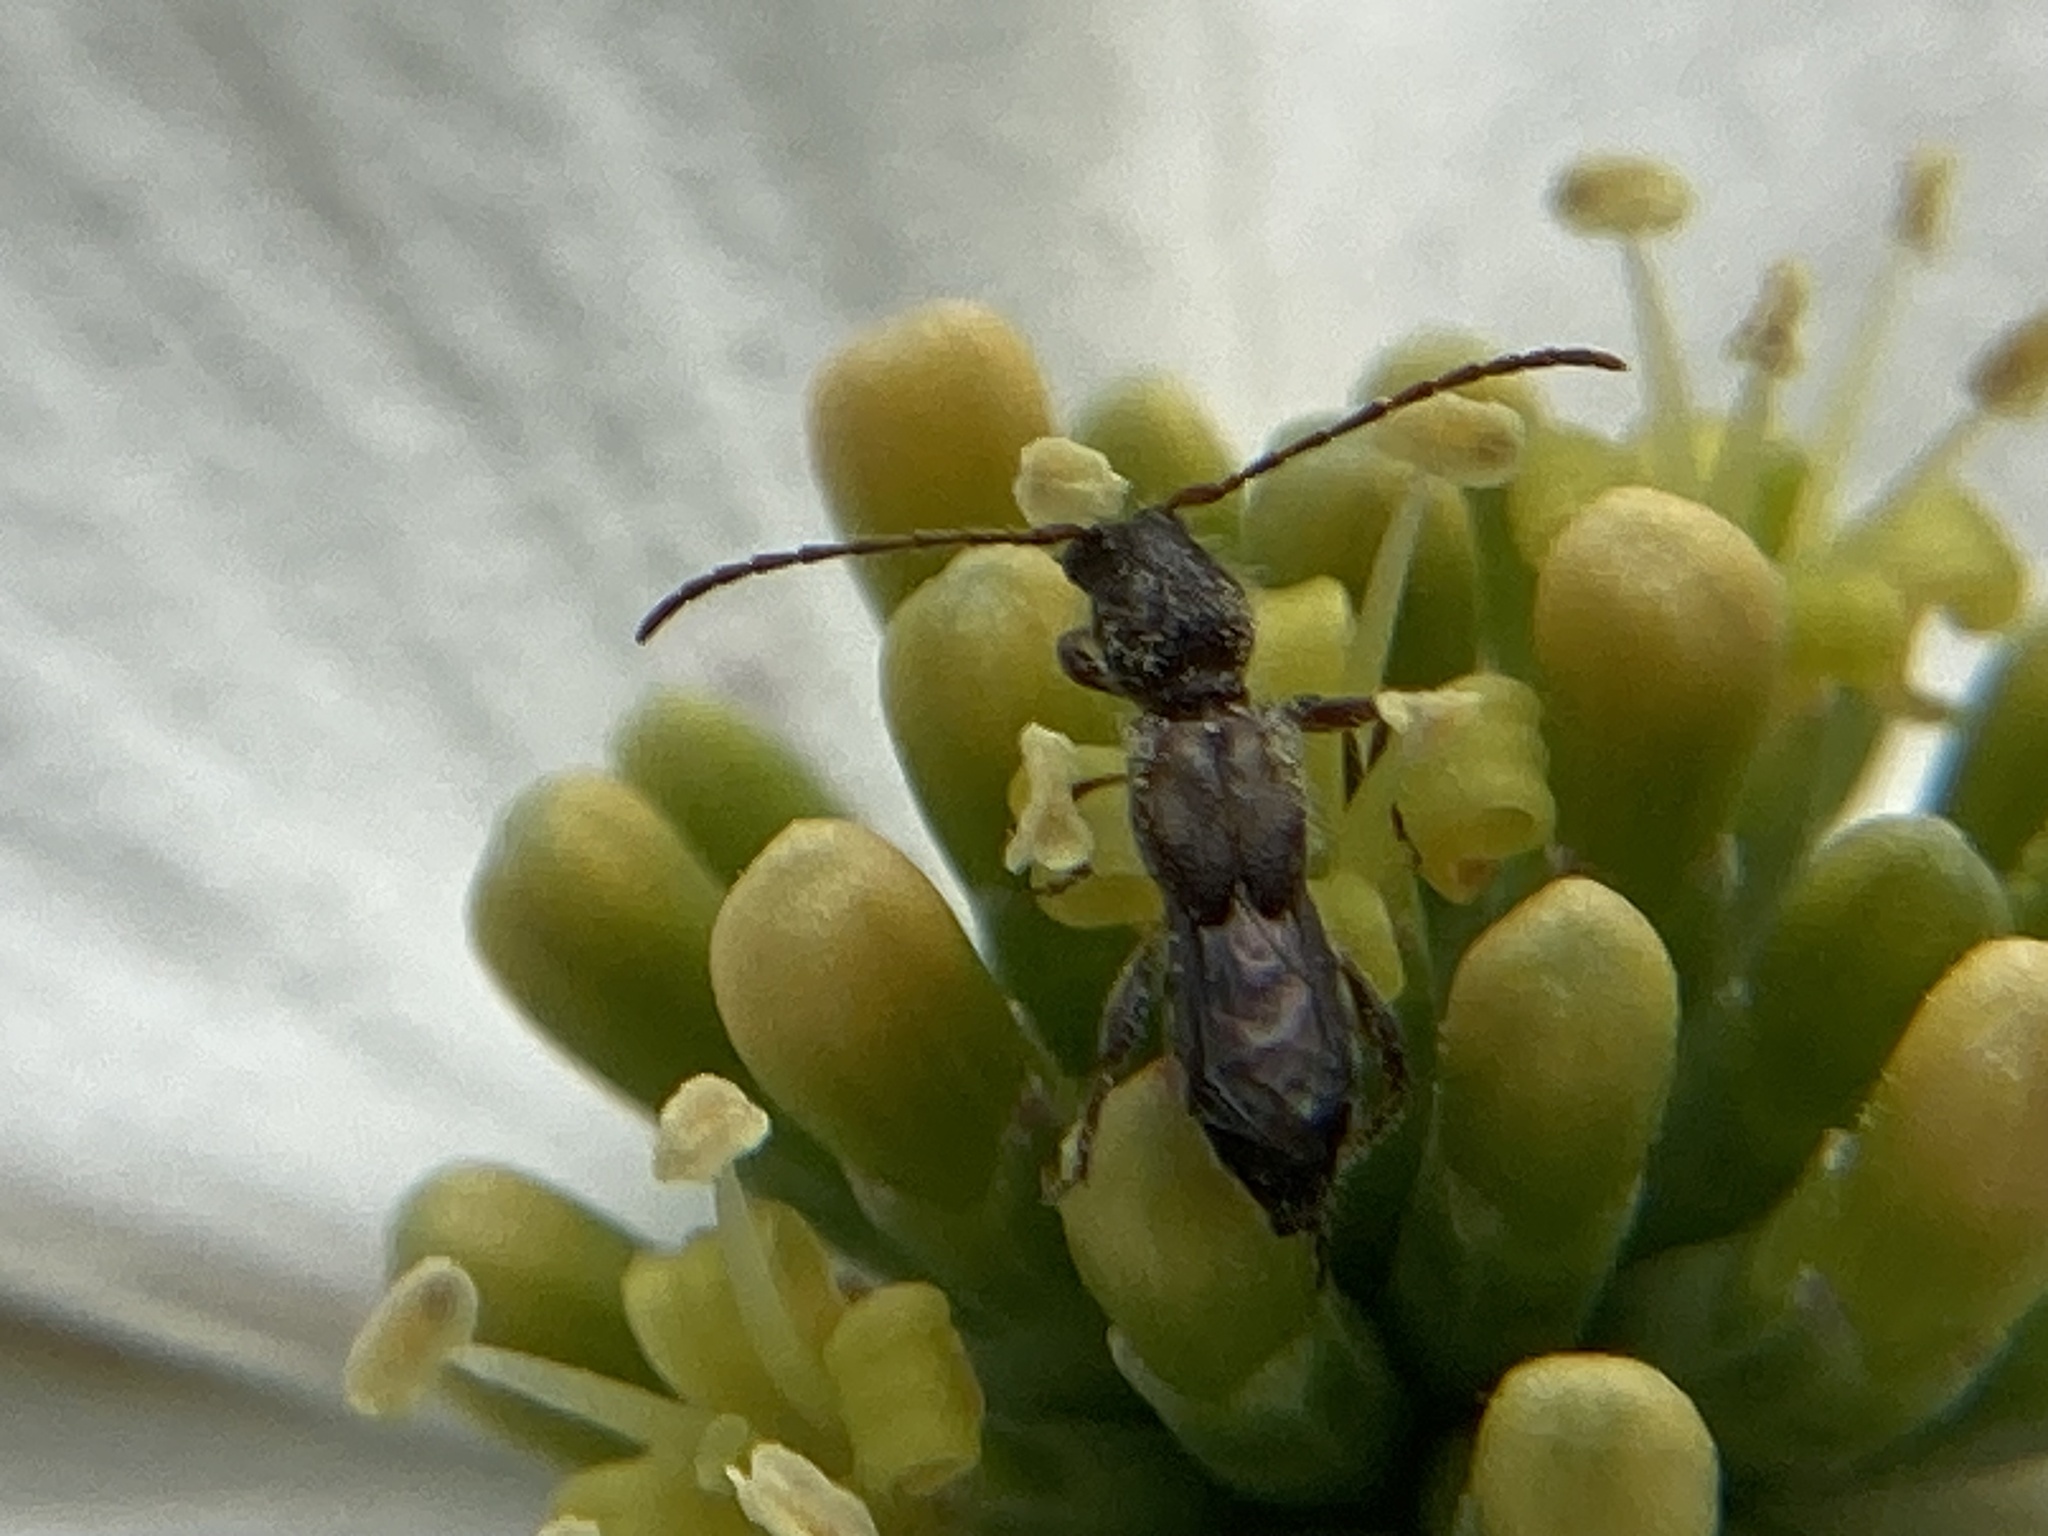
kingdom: Animalia
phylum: Arthropoda
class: Insecta
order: Coleoptera
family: Cerambycidae
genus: Molorchus
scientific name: Molorchus bimaculatus
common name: Bimaculate longhorn beetle
